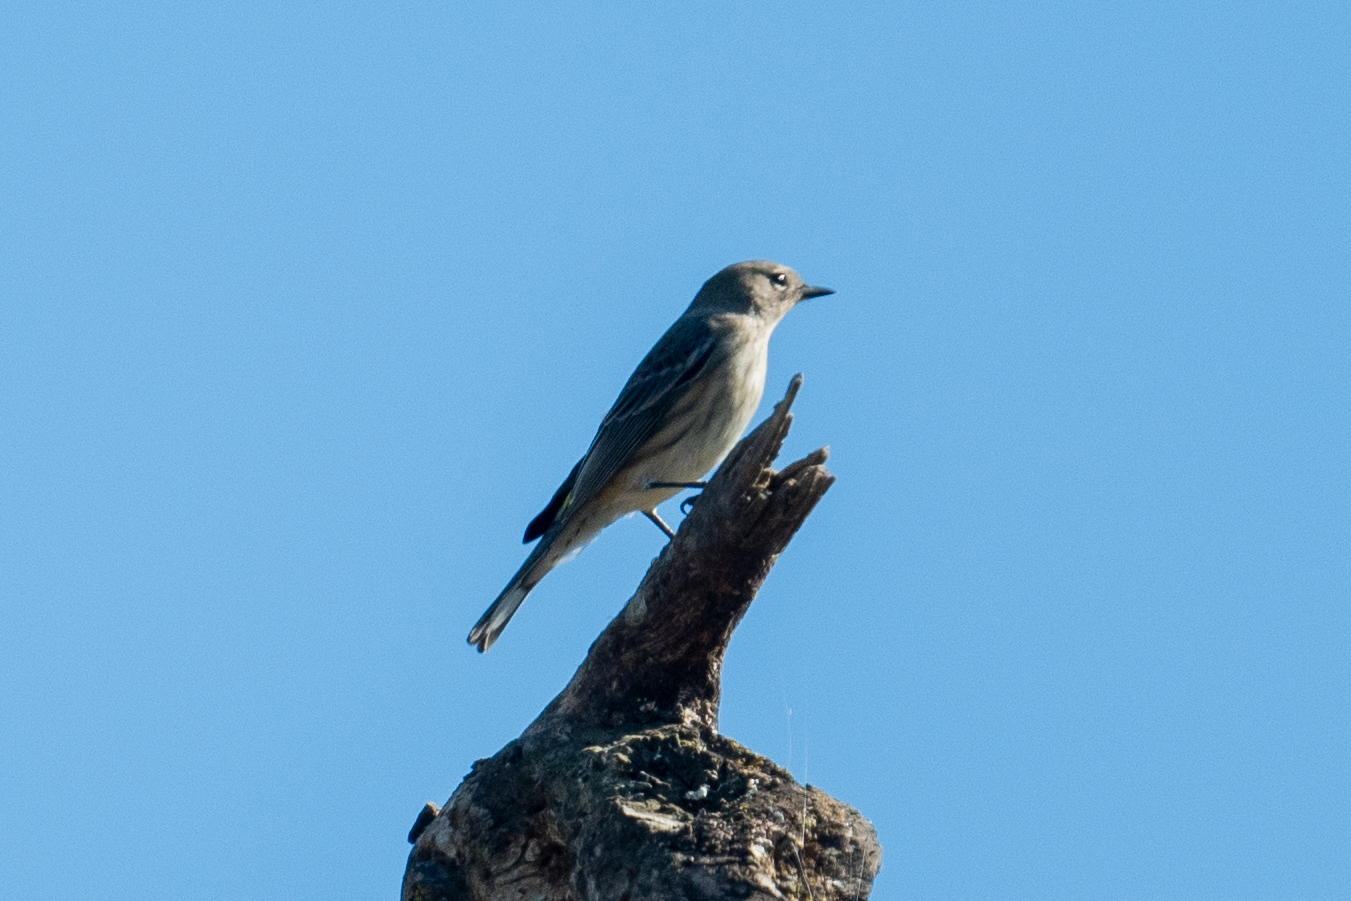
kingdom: Animalia
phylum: Chordata
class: Aves
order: Passeriformes
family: Parulidae
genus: Setophaga
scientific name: Setophaga coronata
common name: Myrtle warbler
